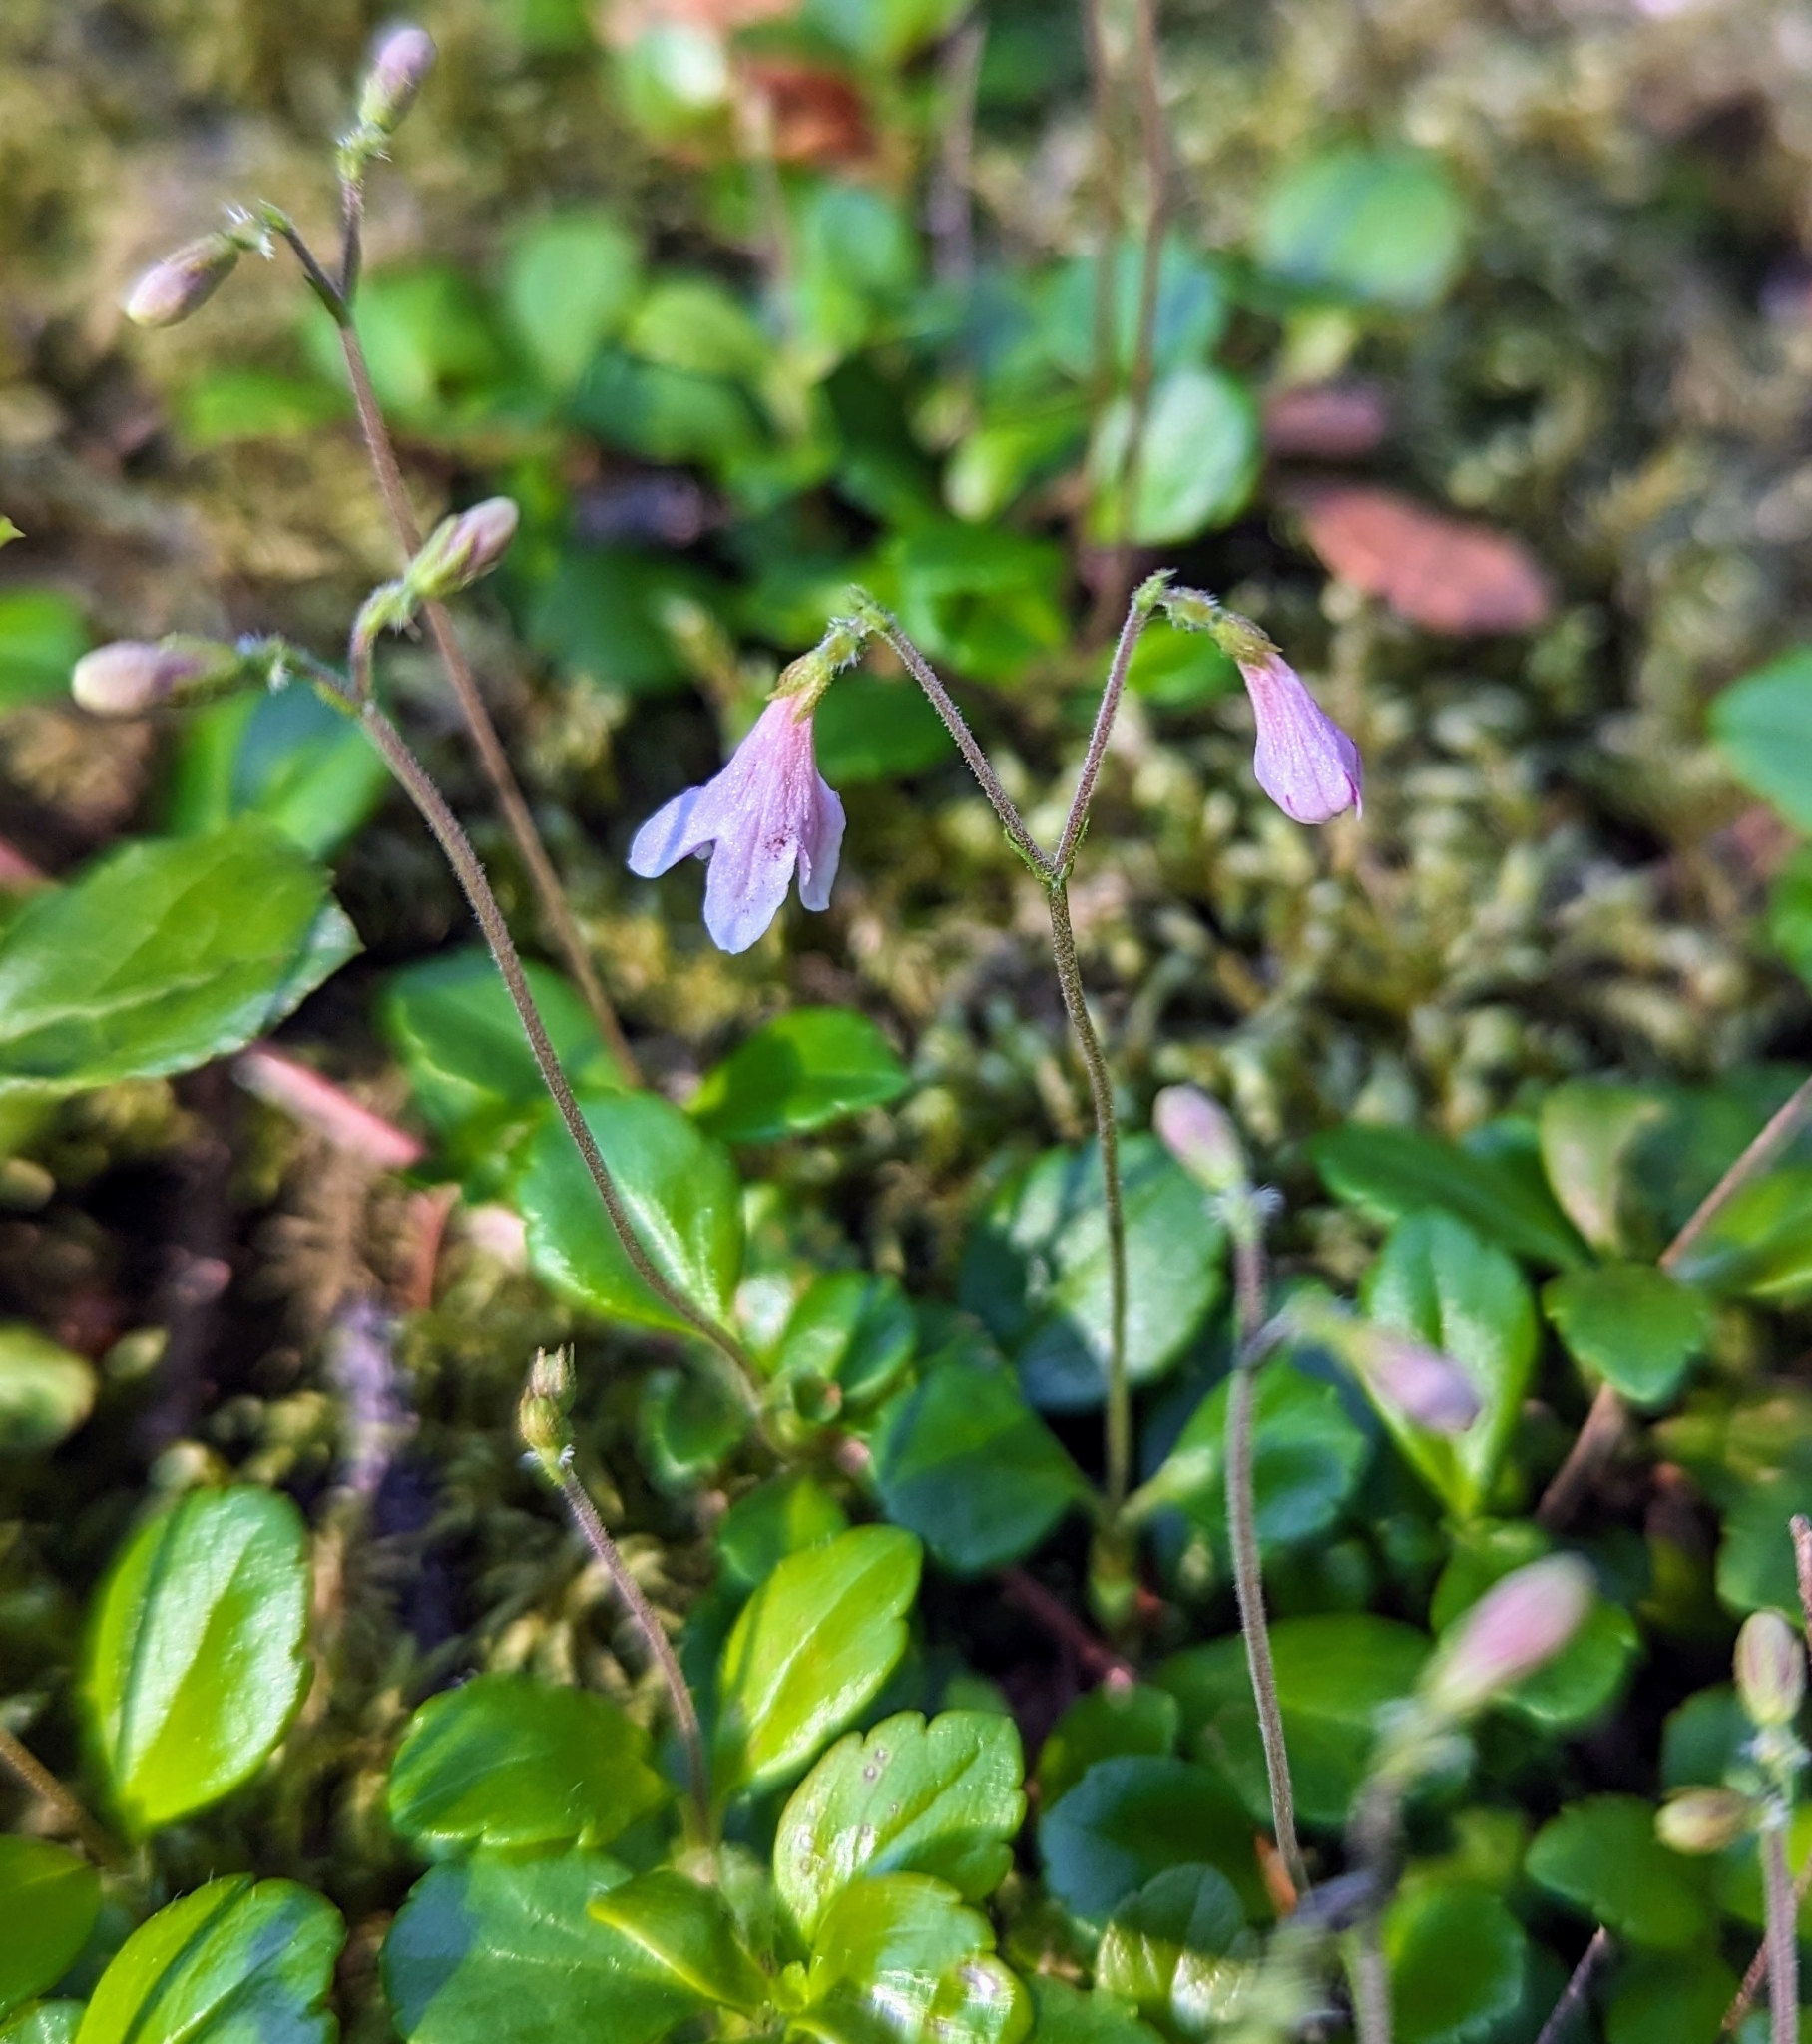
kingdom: Plantae
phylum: Tracheophyta
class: Magnoliopsida
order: Dipsacales
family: Caprifoliaceae
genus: Linnaea
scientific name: Linnaea borealis
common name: Twinflower
